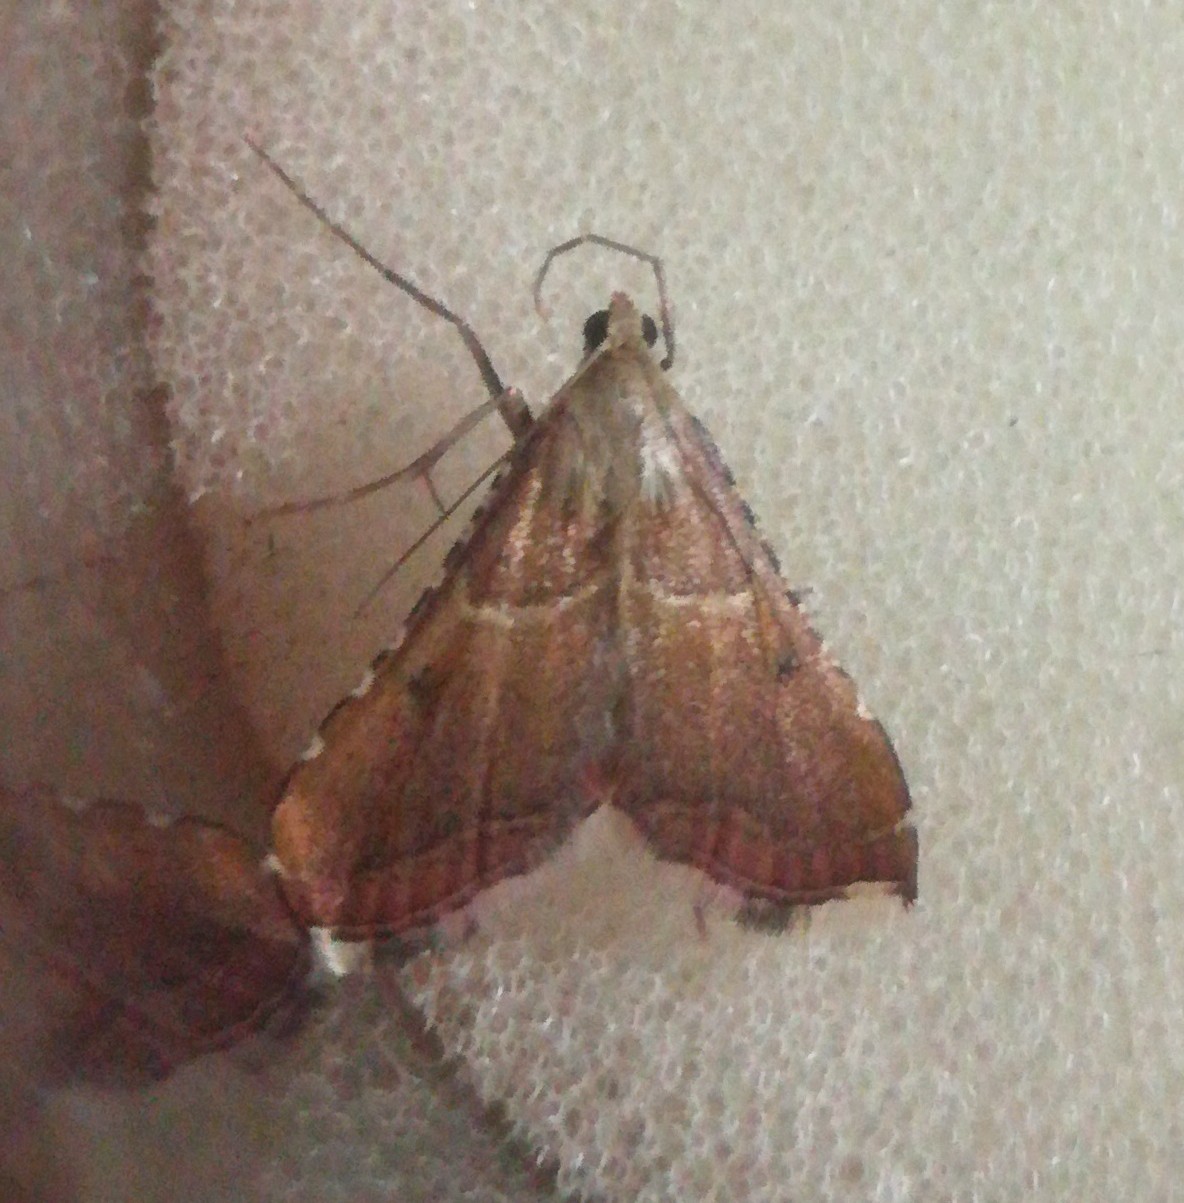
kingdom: Animalia
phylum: Arthropoda
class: Insecta
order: Lepidoptera
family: Pyralidae
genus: Endotricha
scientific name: Endotricha flammealis
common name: Rosy tabby
